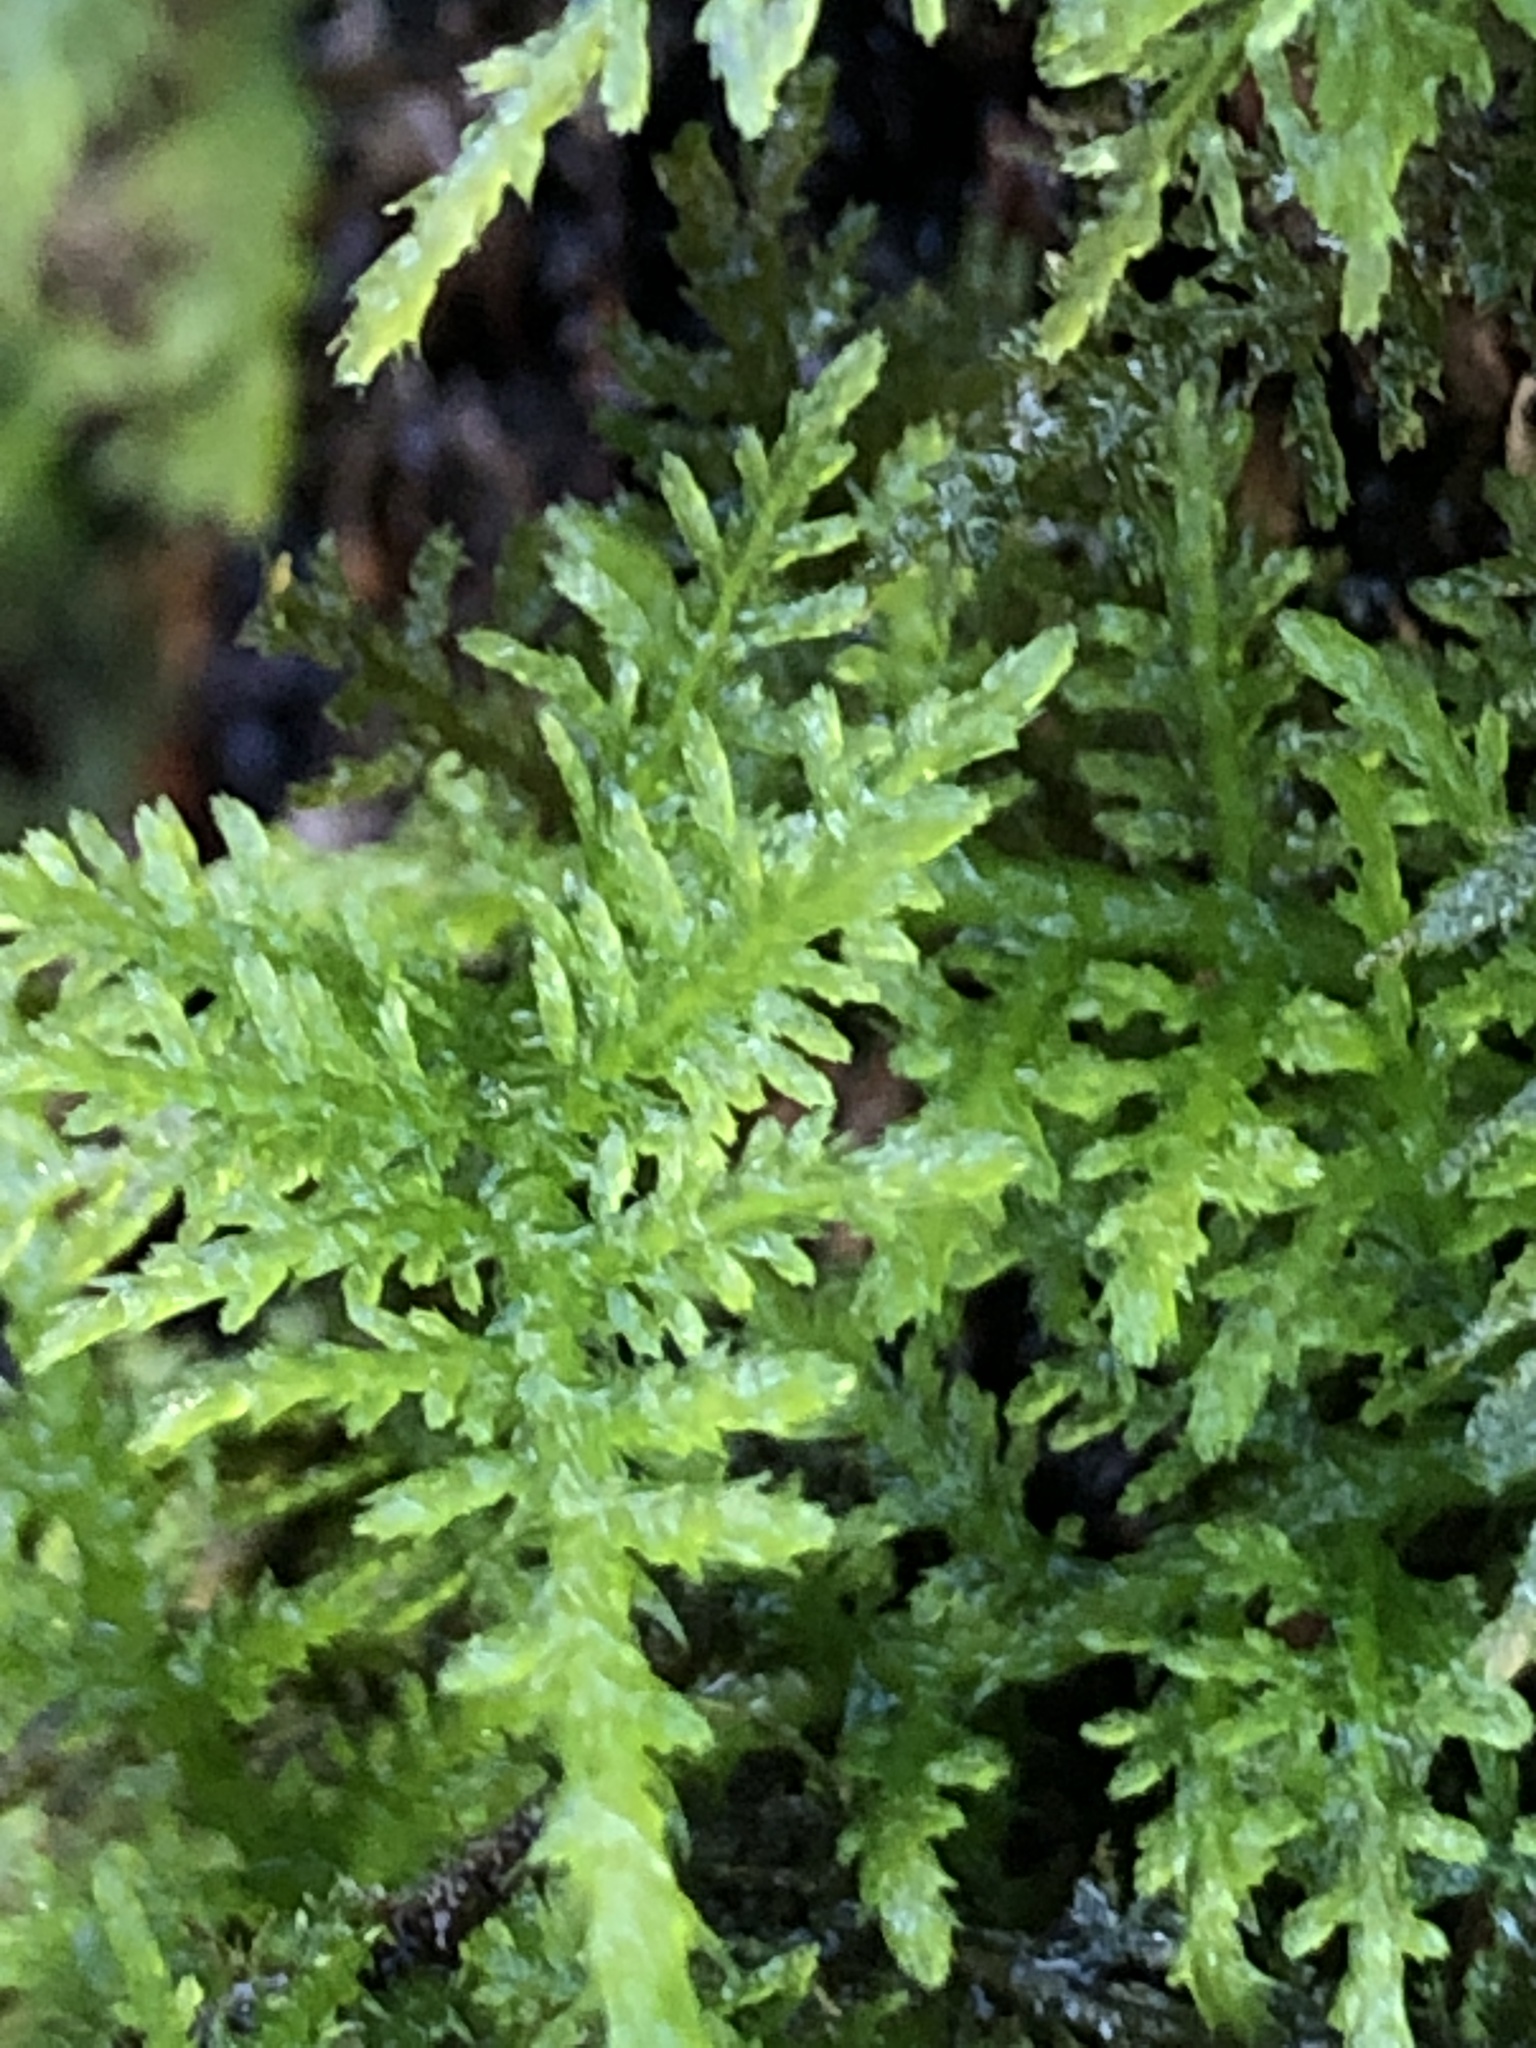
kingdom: Plantae
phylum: Bryophyta
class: Bryopsida
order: Hypnales
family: Thuidiaceae
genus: Thuidium
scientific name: Thuidium tamariscinum
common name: Common tamarisk-moss
